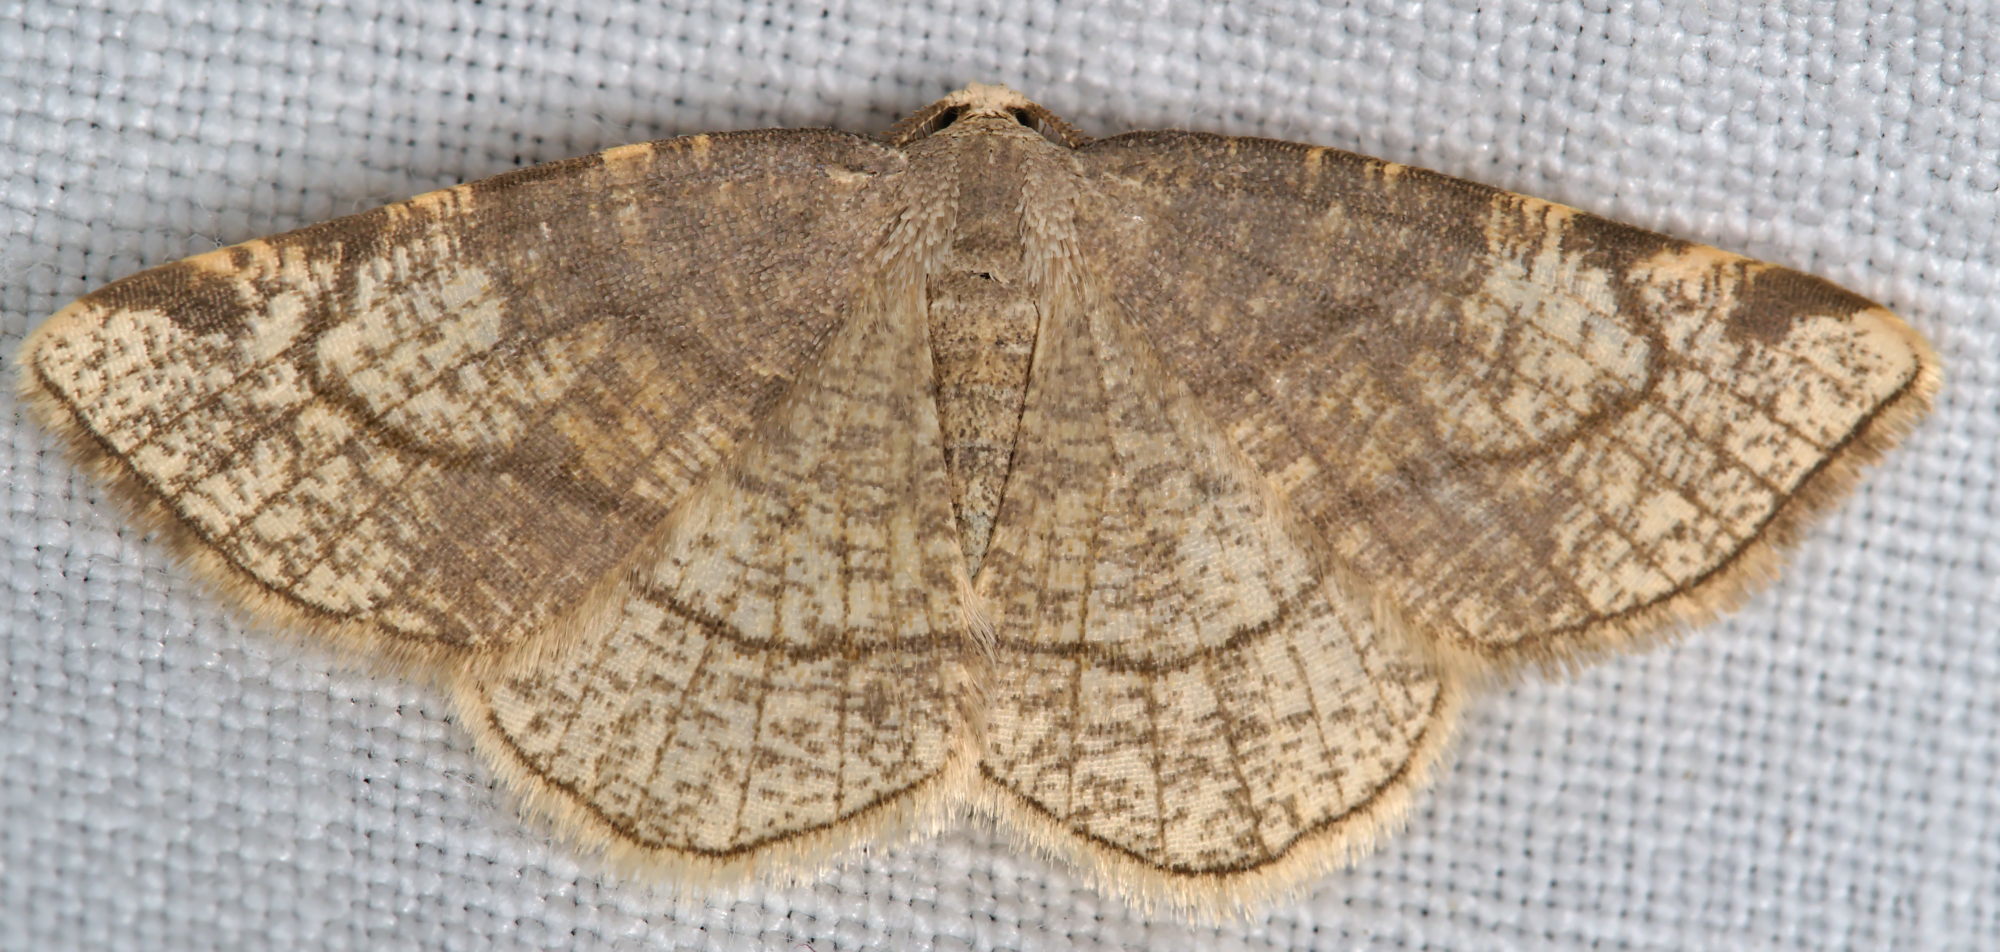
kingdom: Animalia
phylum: Arthropoda
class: Insecta
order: Lepidoptera
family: Geometridae
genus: Stegania
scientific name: Stegania trimaculata
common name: Dorset cream wave
